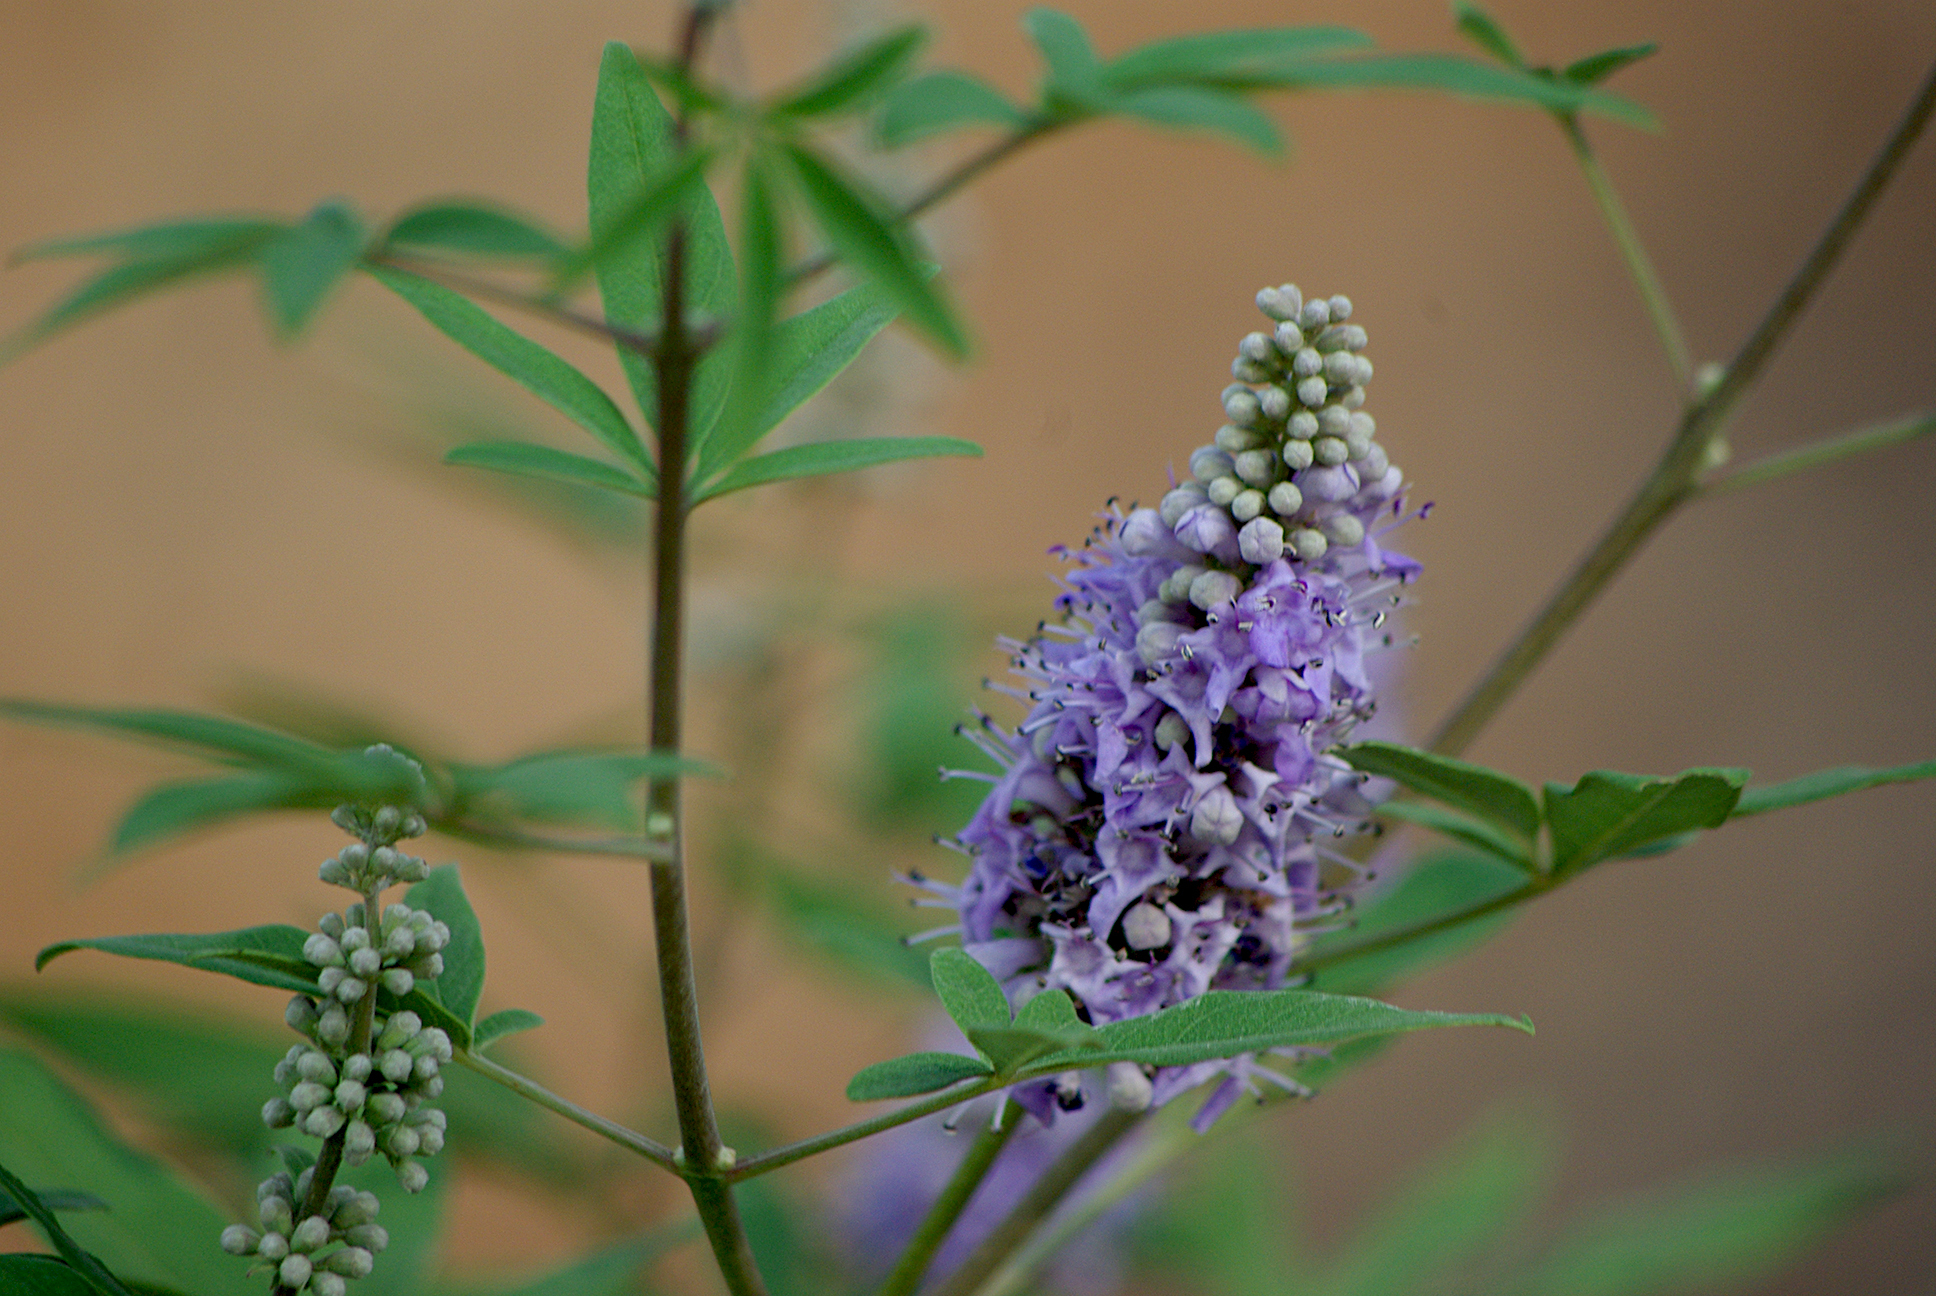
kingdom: Plantae
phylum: Tracheophyta
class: Magnoliopsida
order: Lamiales
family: Lamiaceae
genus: Vitex
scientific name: Vitex agnus-castus
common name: Chasteberry
